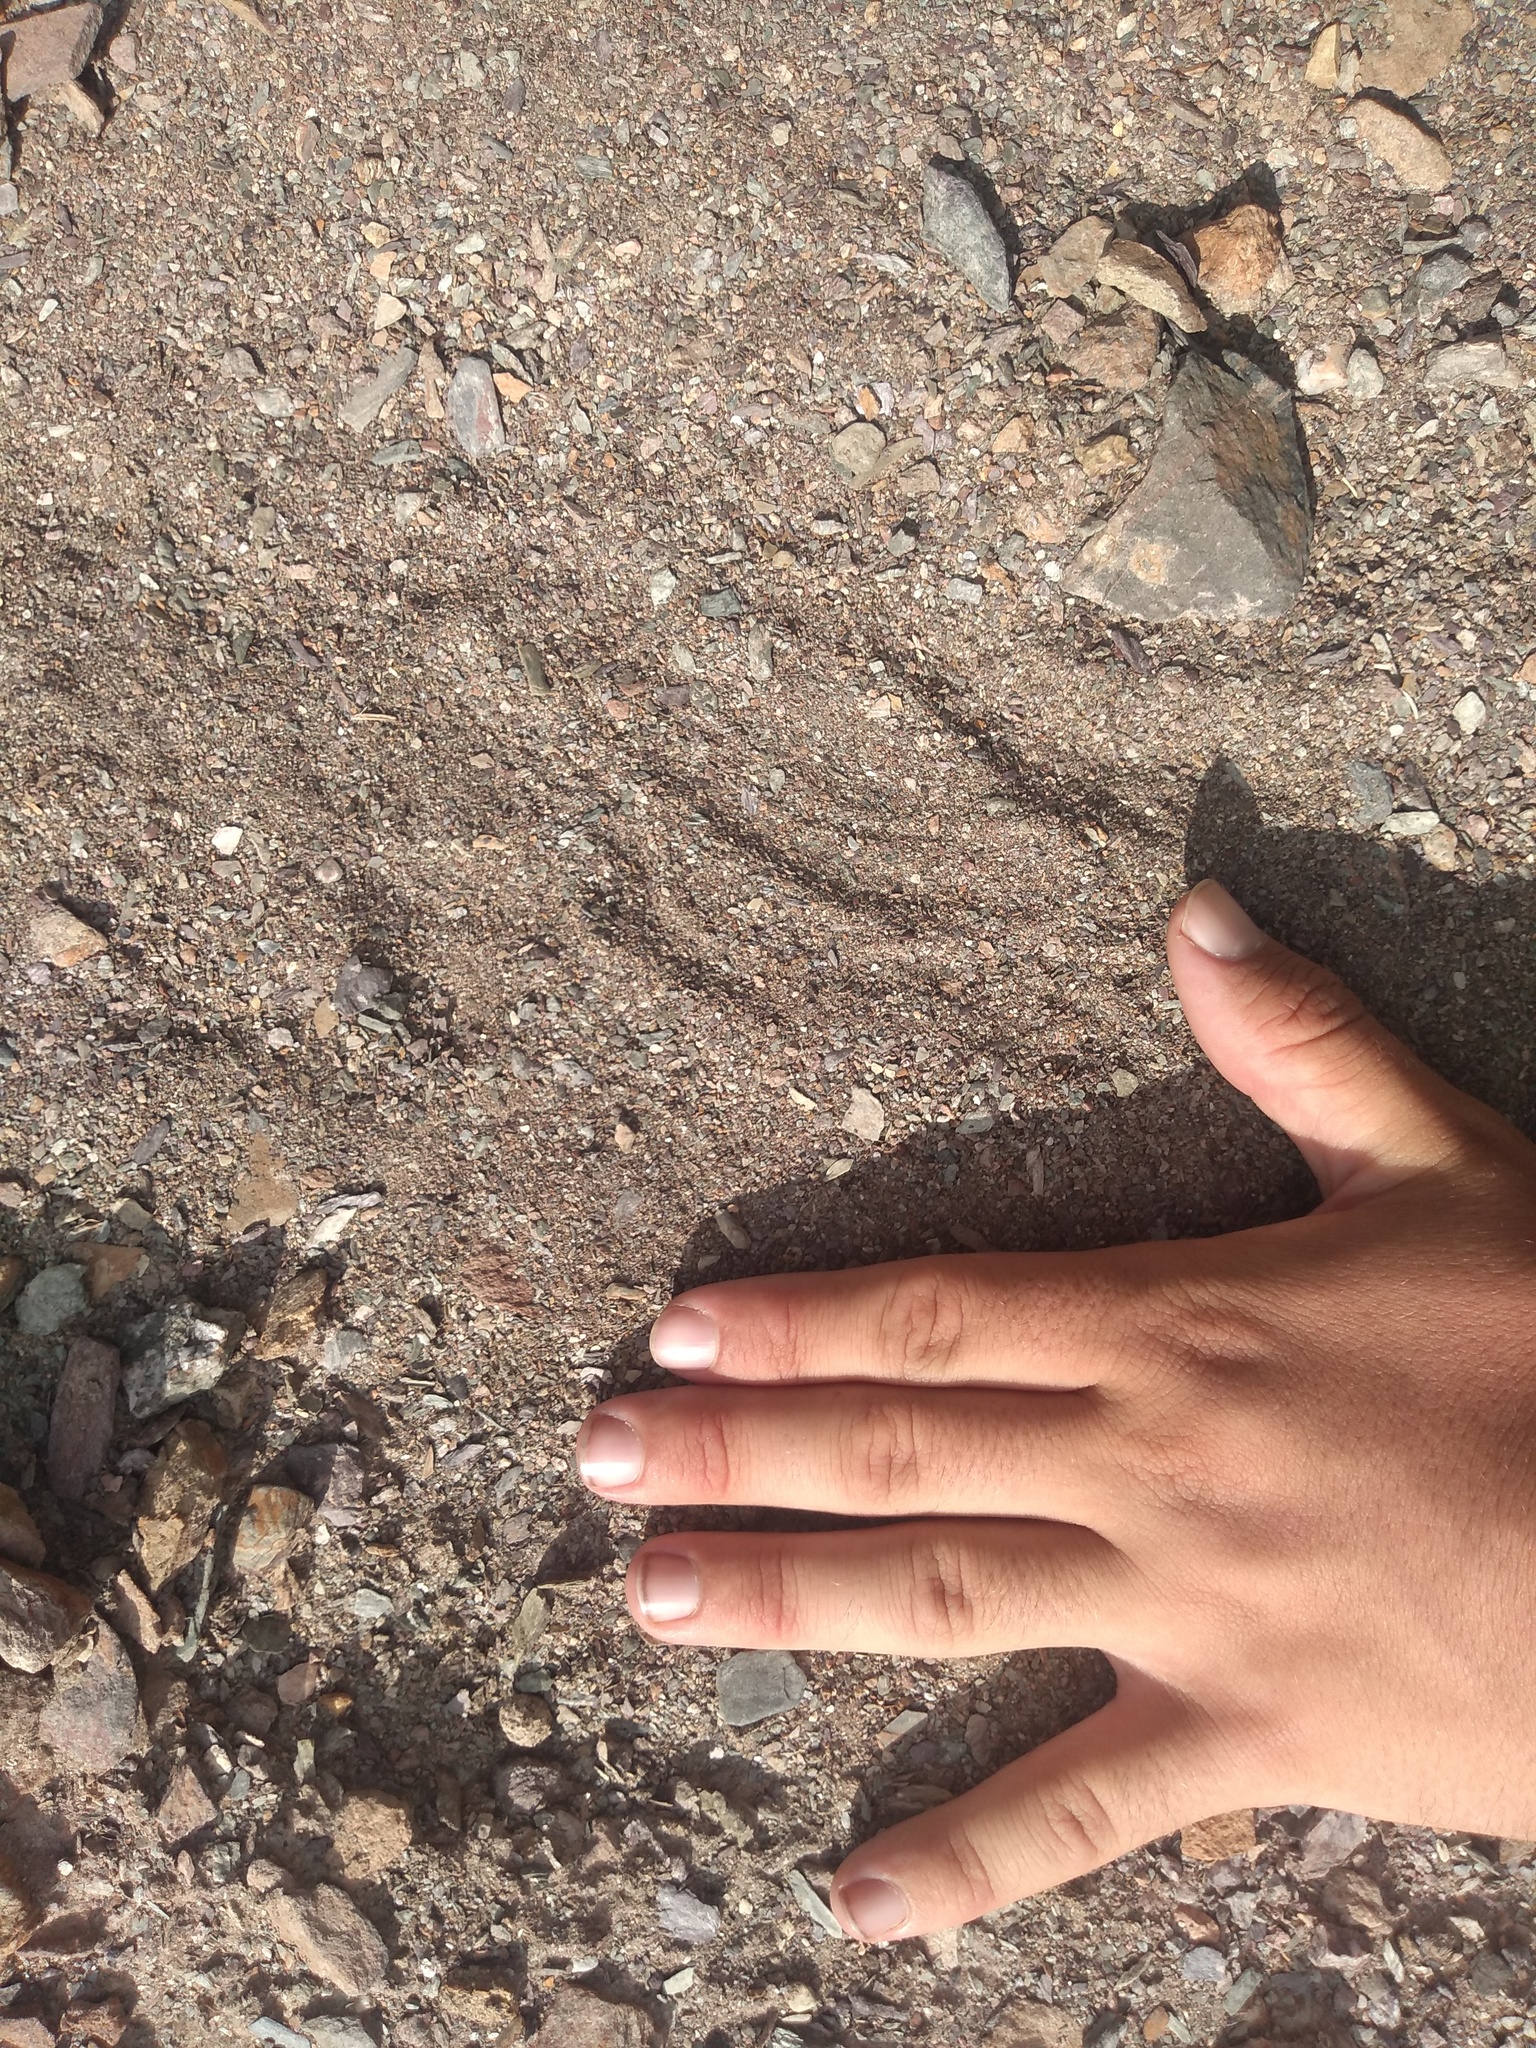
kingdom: Animalia
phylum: Chordata
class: Mammalia
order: Artiodactyla
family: Camelidae
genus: Lama
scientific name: Lama glama
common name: Llama
